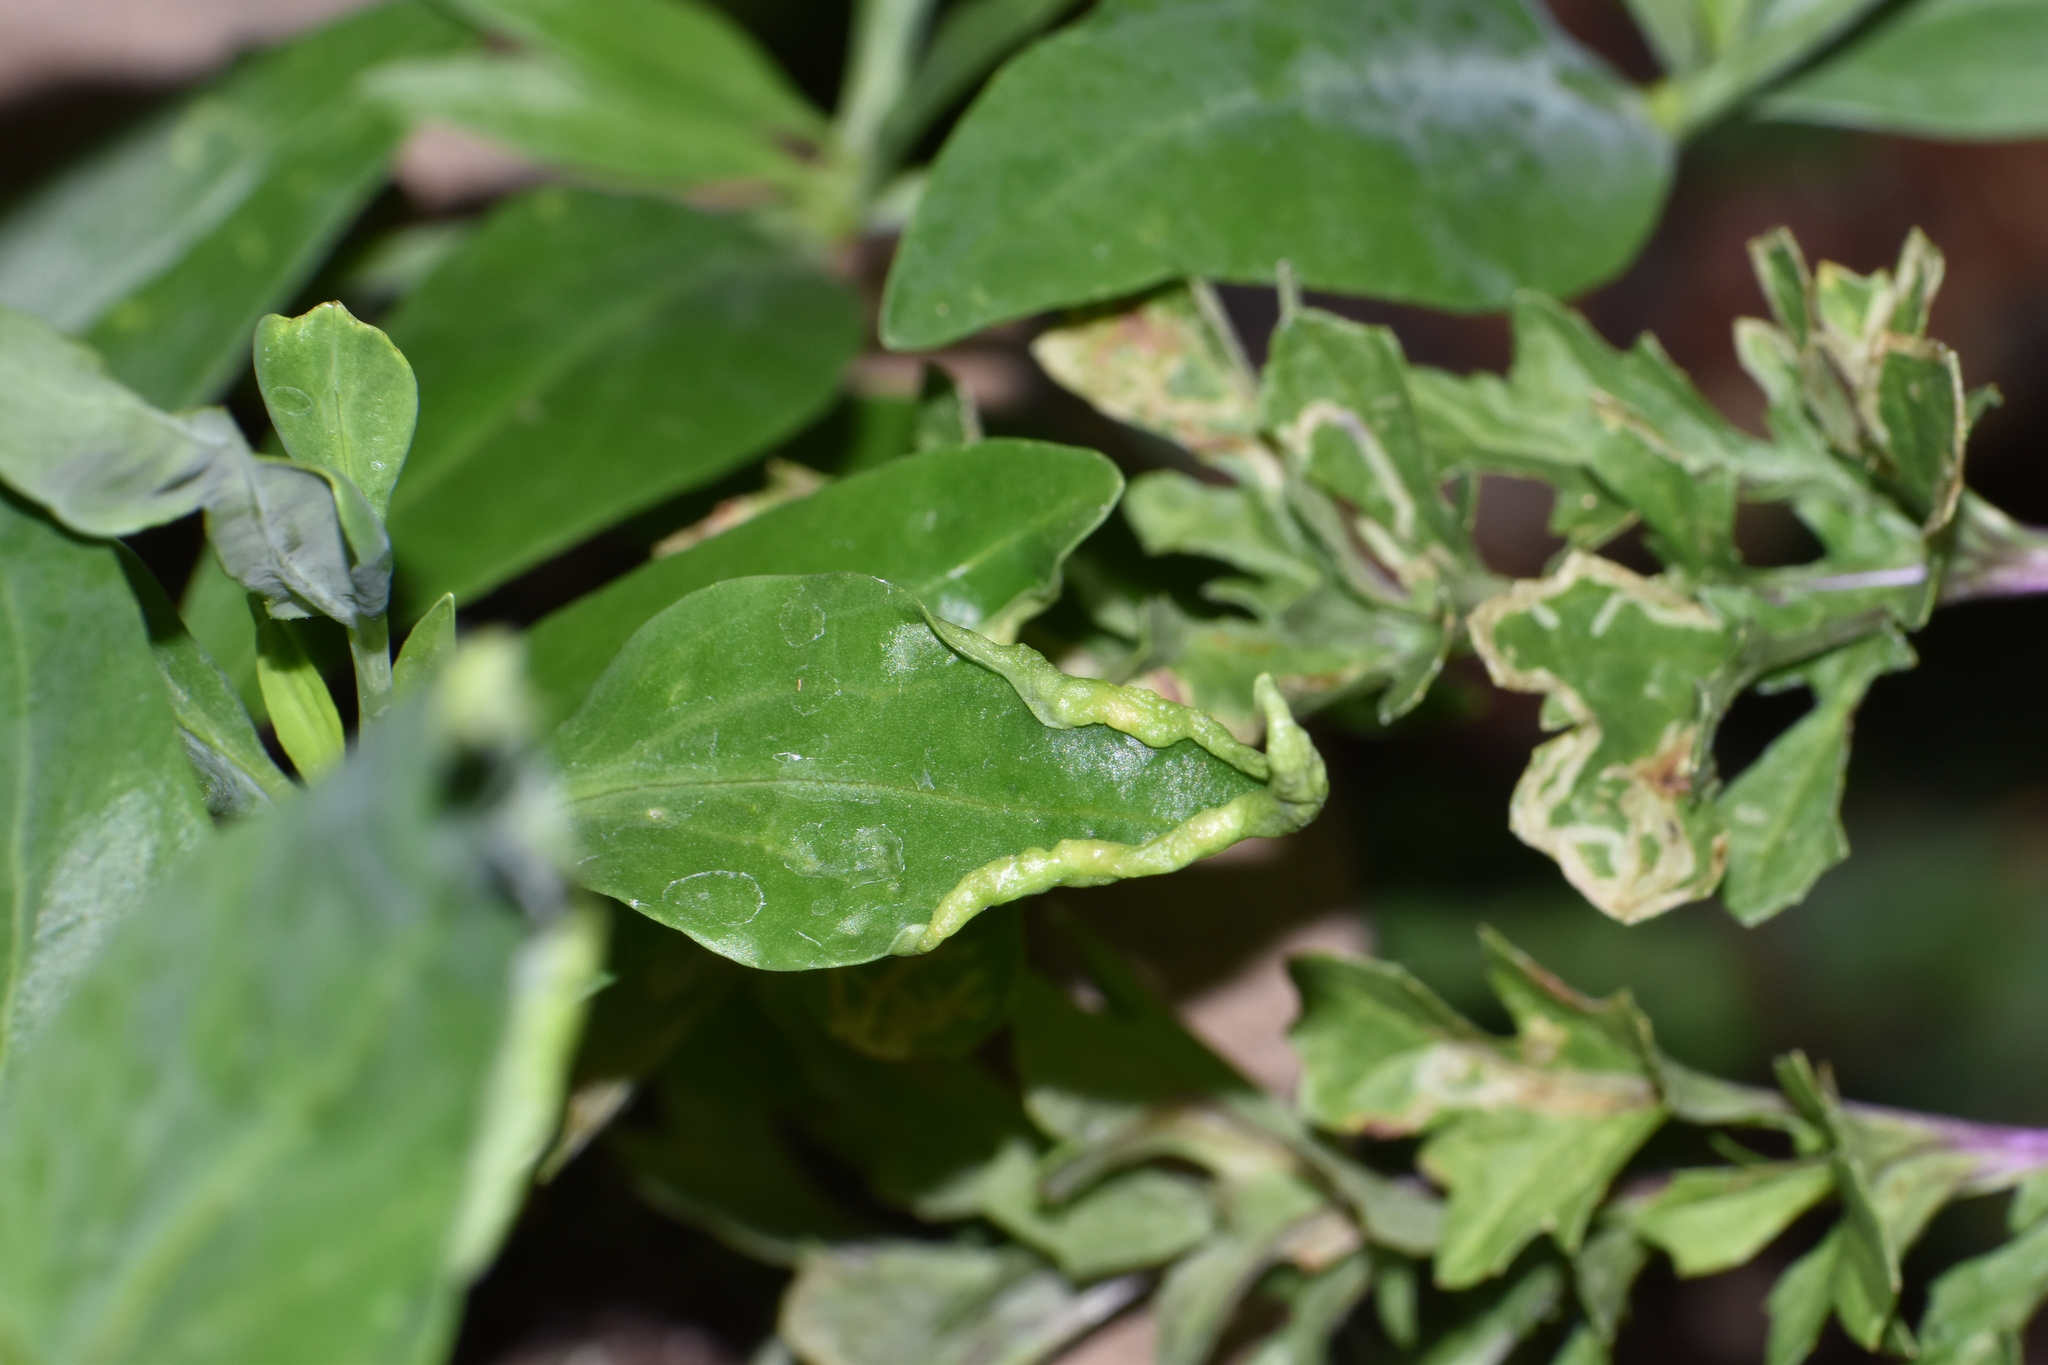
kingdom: Animalia
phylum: Arthropoda
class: Insecta
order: Hemiptera
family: Triozidae
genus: Trioza
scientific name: Trioza centranthi
